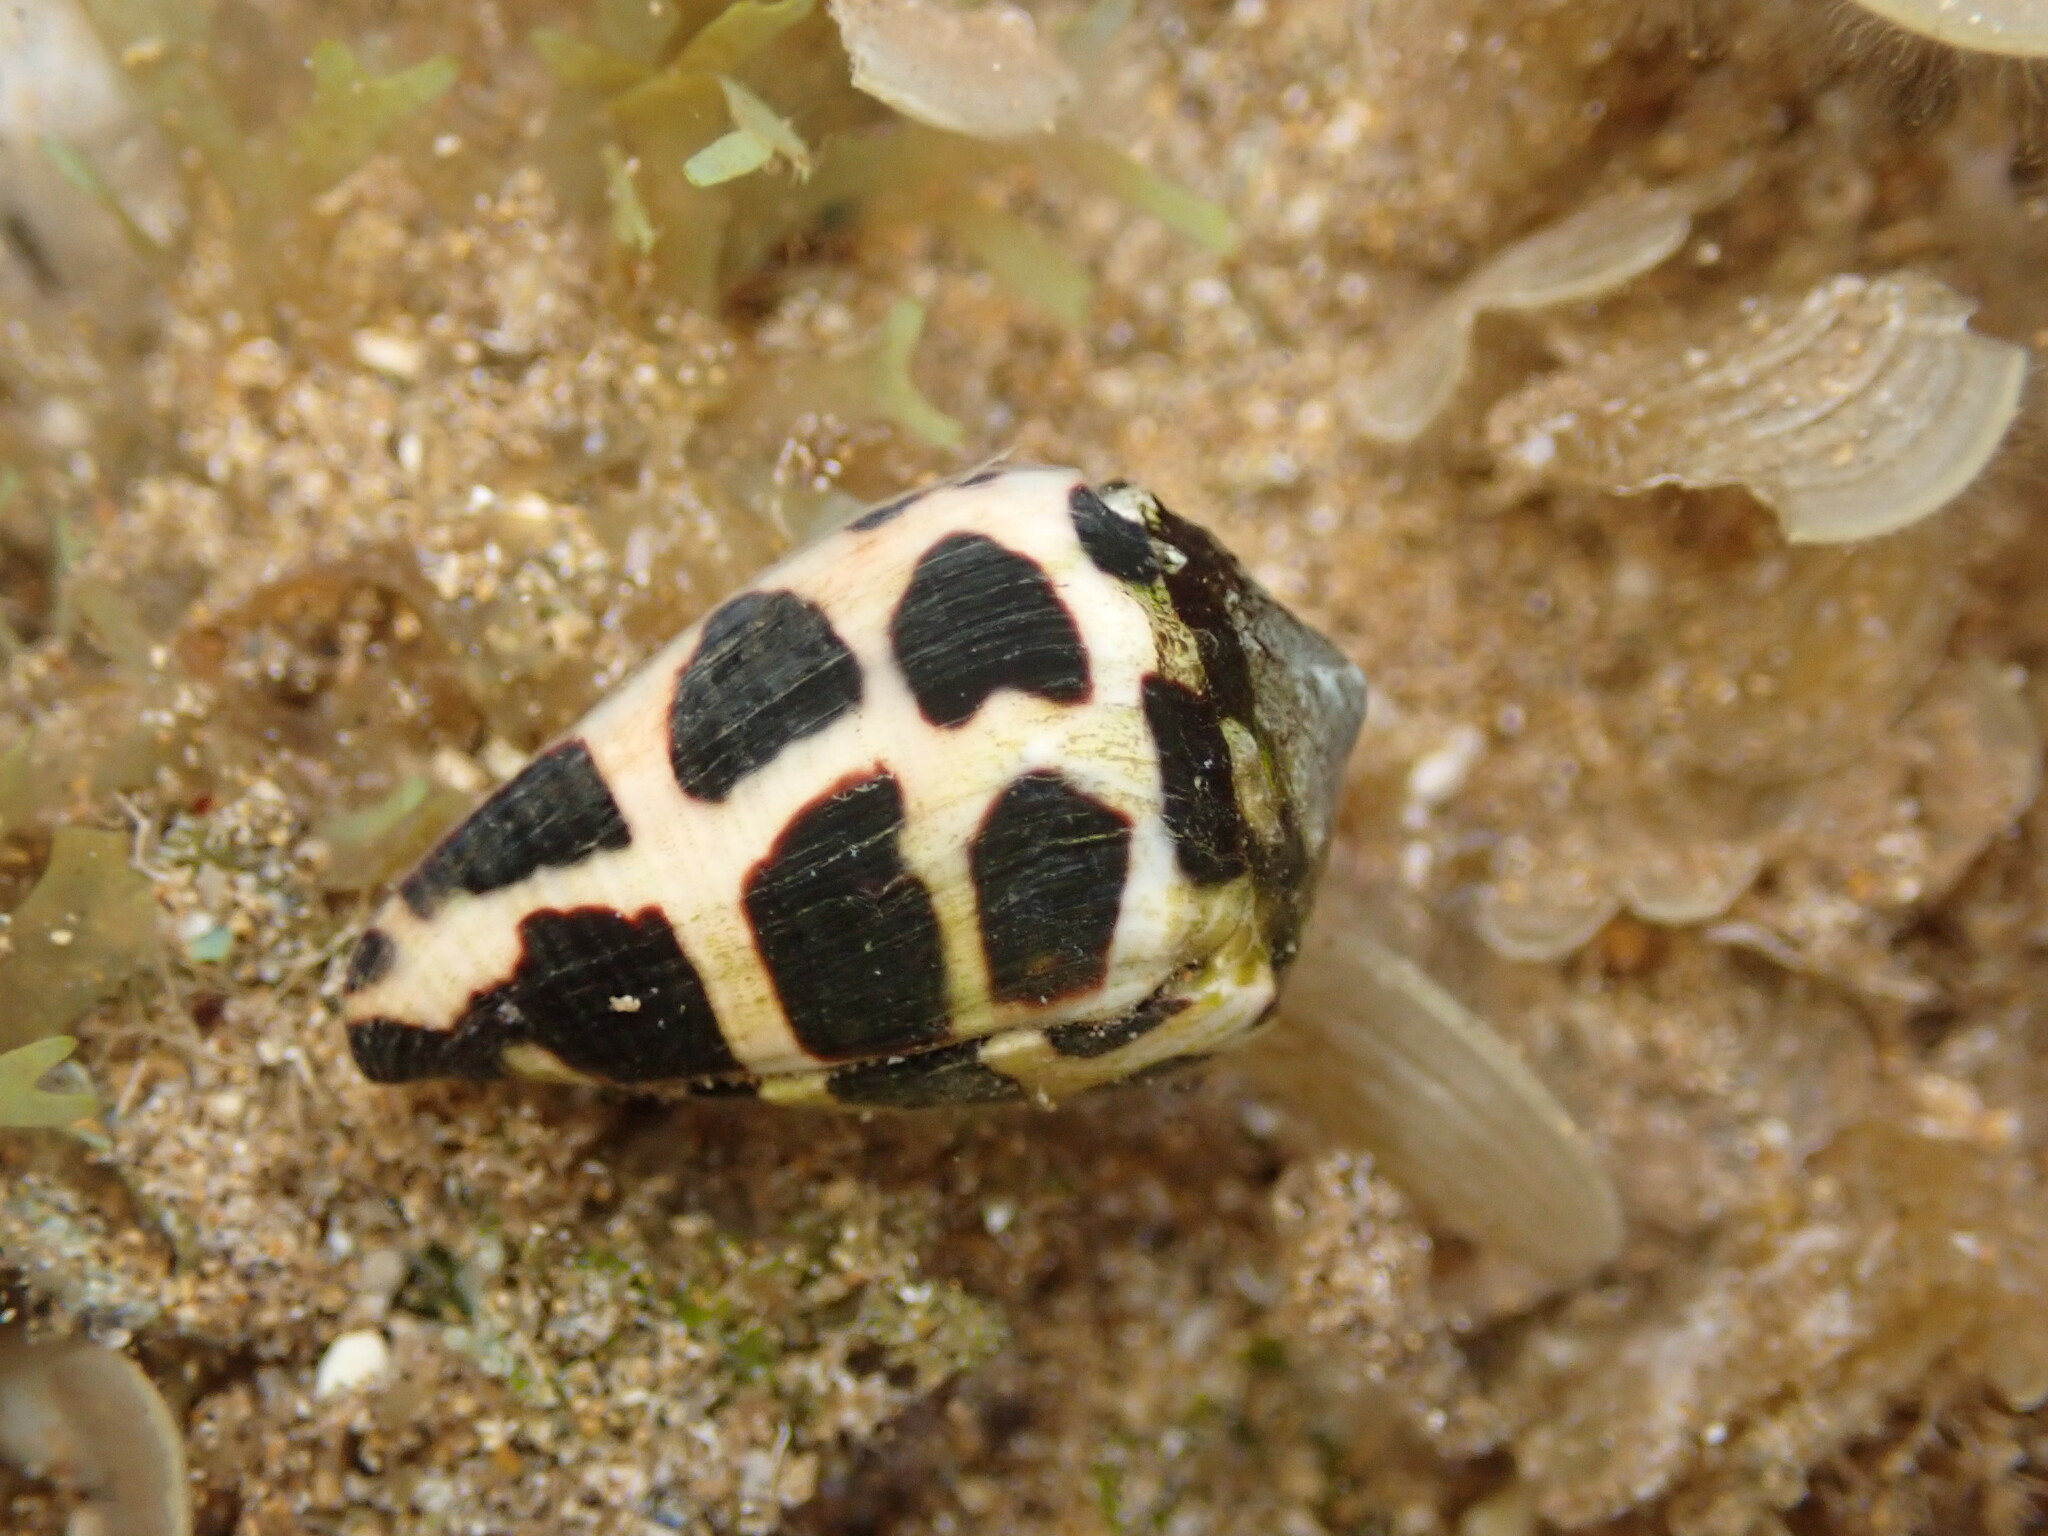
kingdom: Animalia
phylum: Mollusca
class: Gastropoda
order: Neogastropoda
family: Conidae
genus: Conus
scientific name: Conus ebraeus
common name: Hebrew cone
